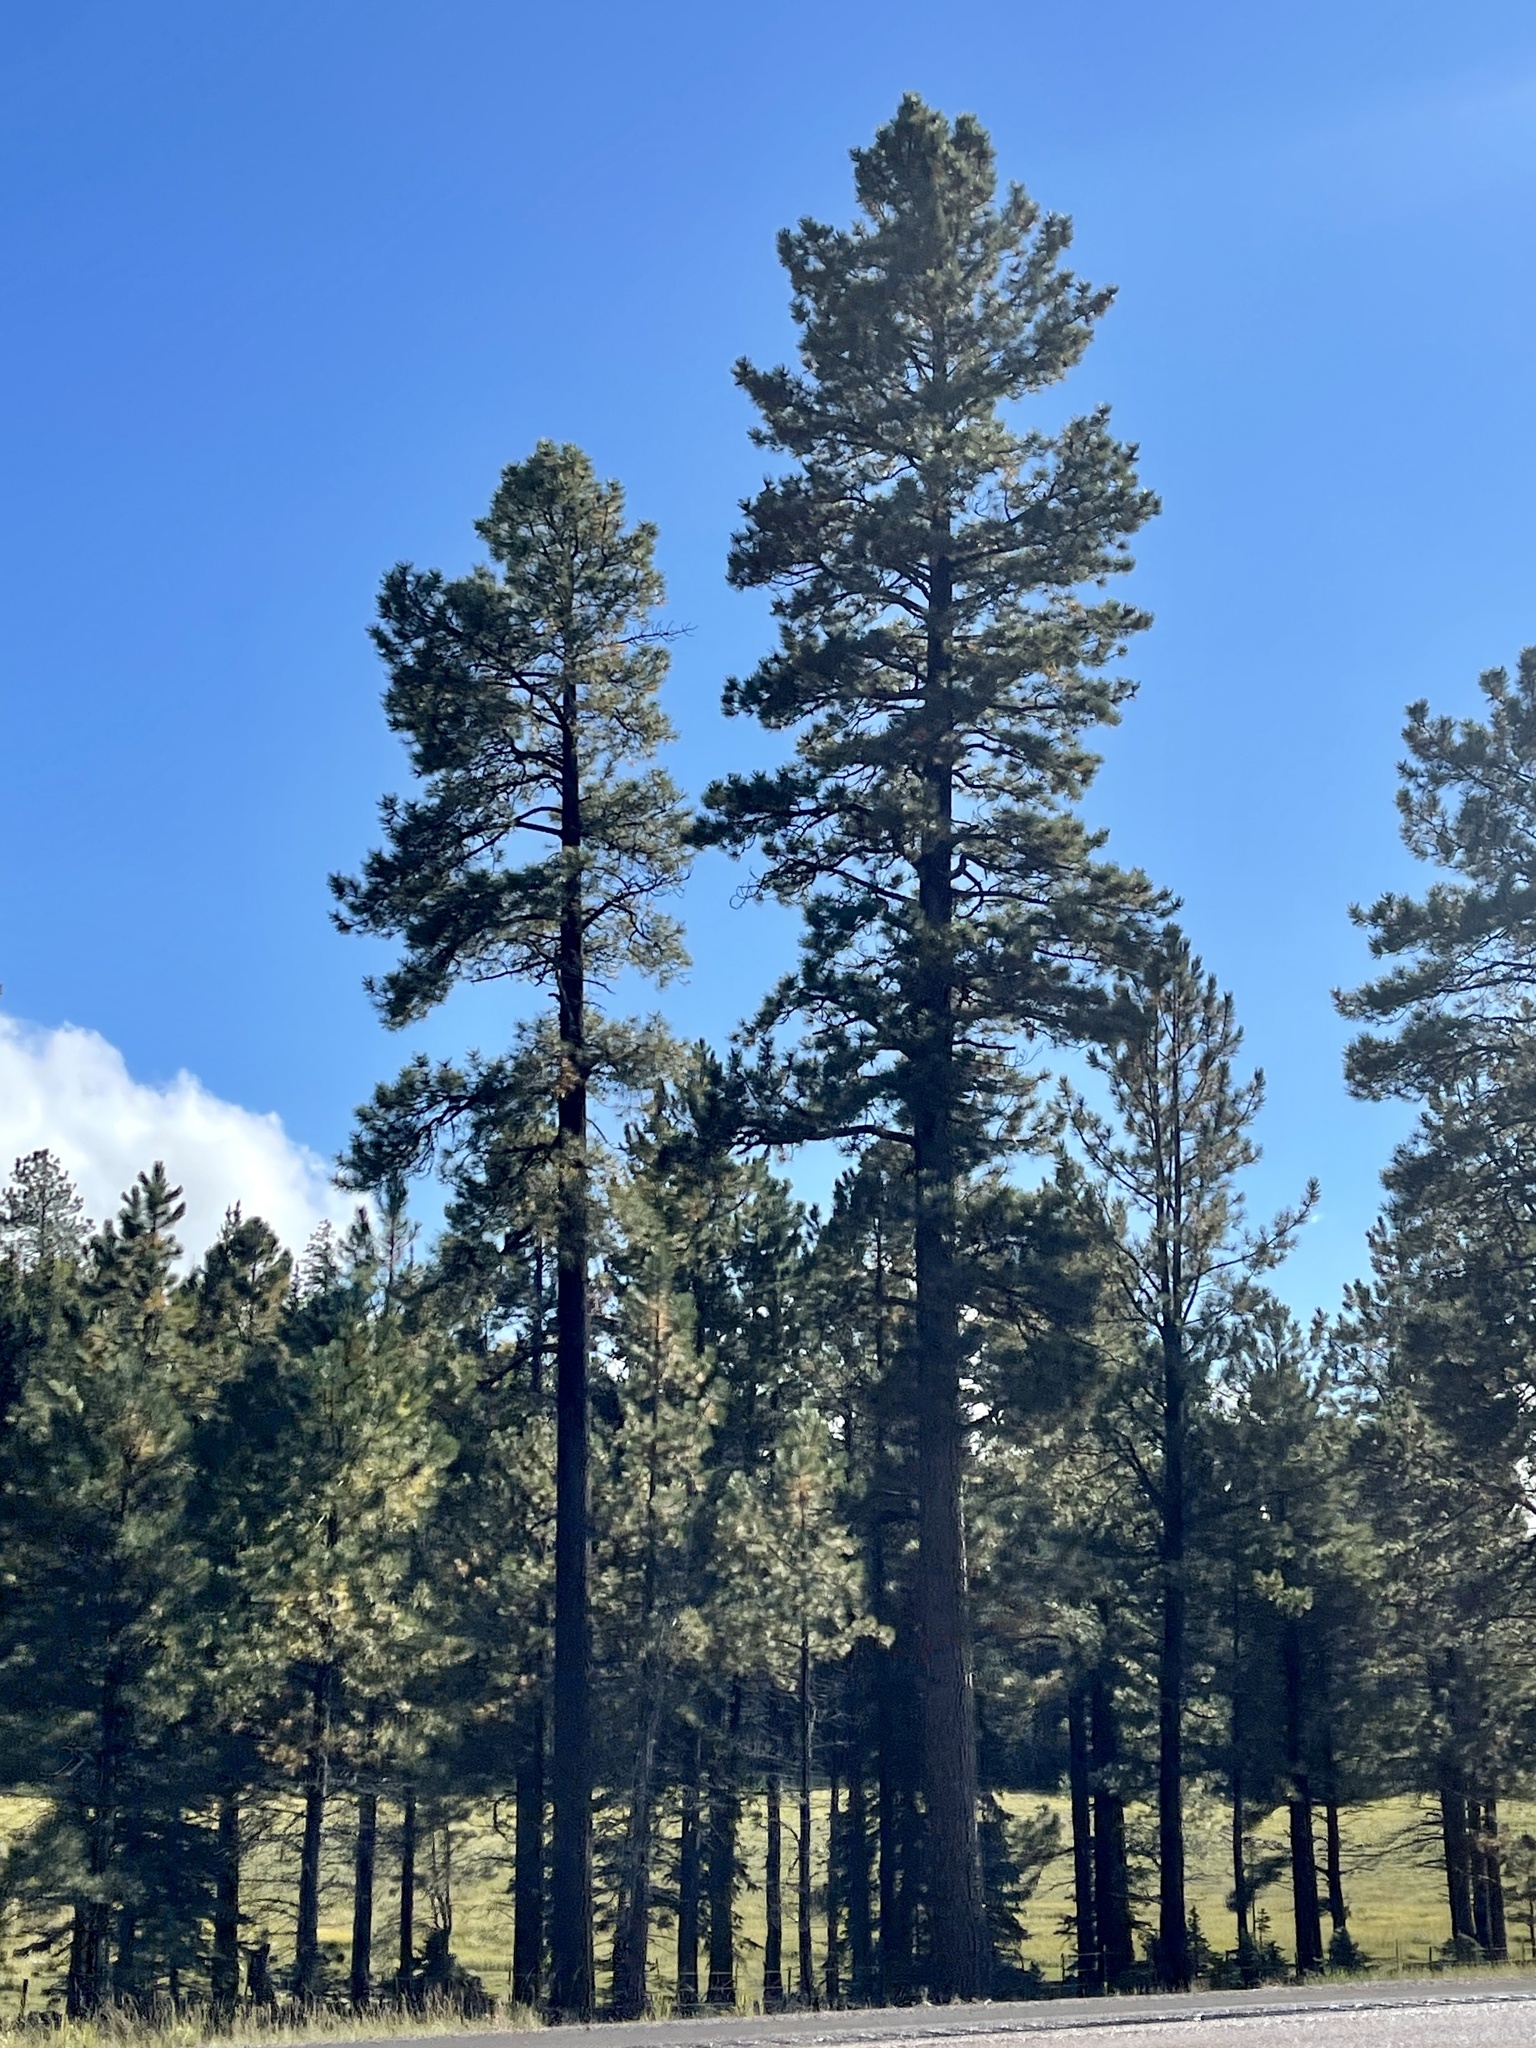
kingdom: Plantae
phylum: Tracheophyta
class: Pinopsida
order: Pinales
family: Pinaceae
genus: Pinus
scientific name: Pinus ponderosa
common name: Western yellow-pine
